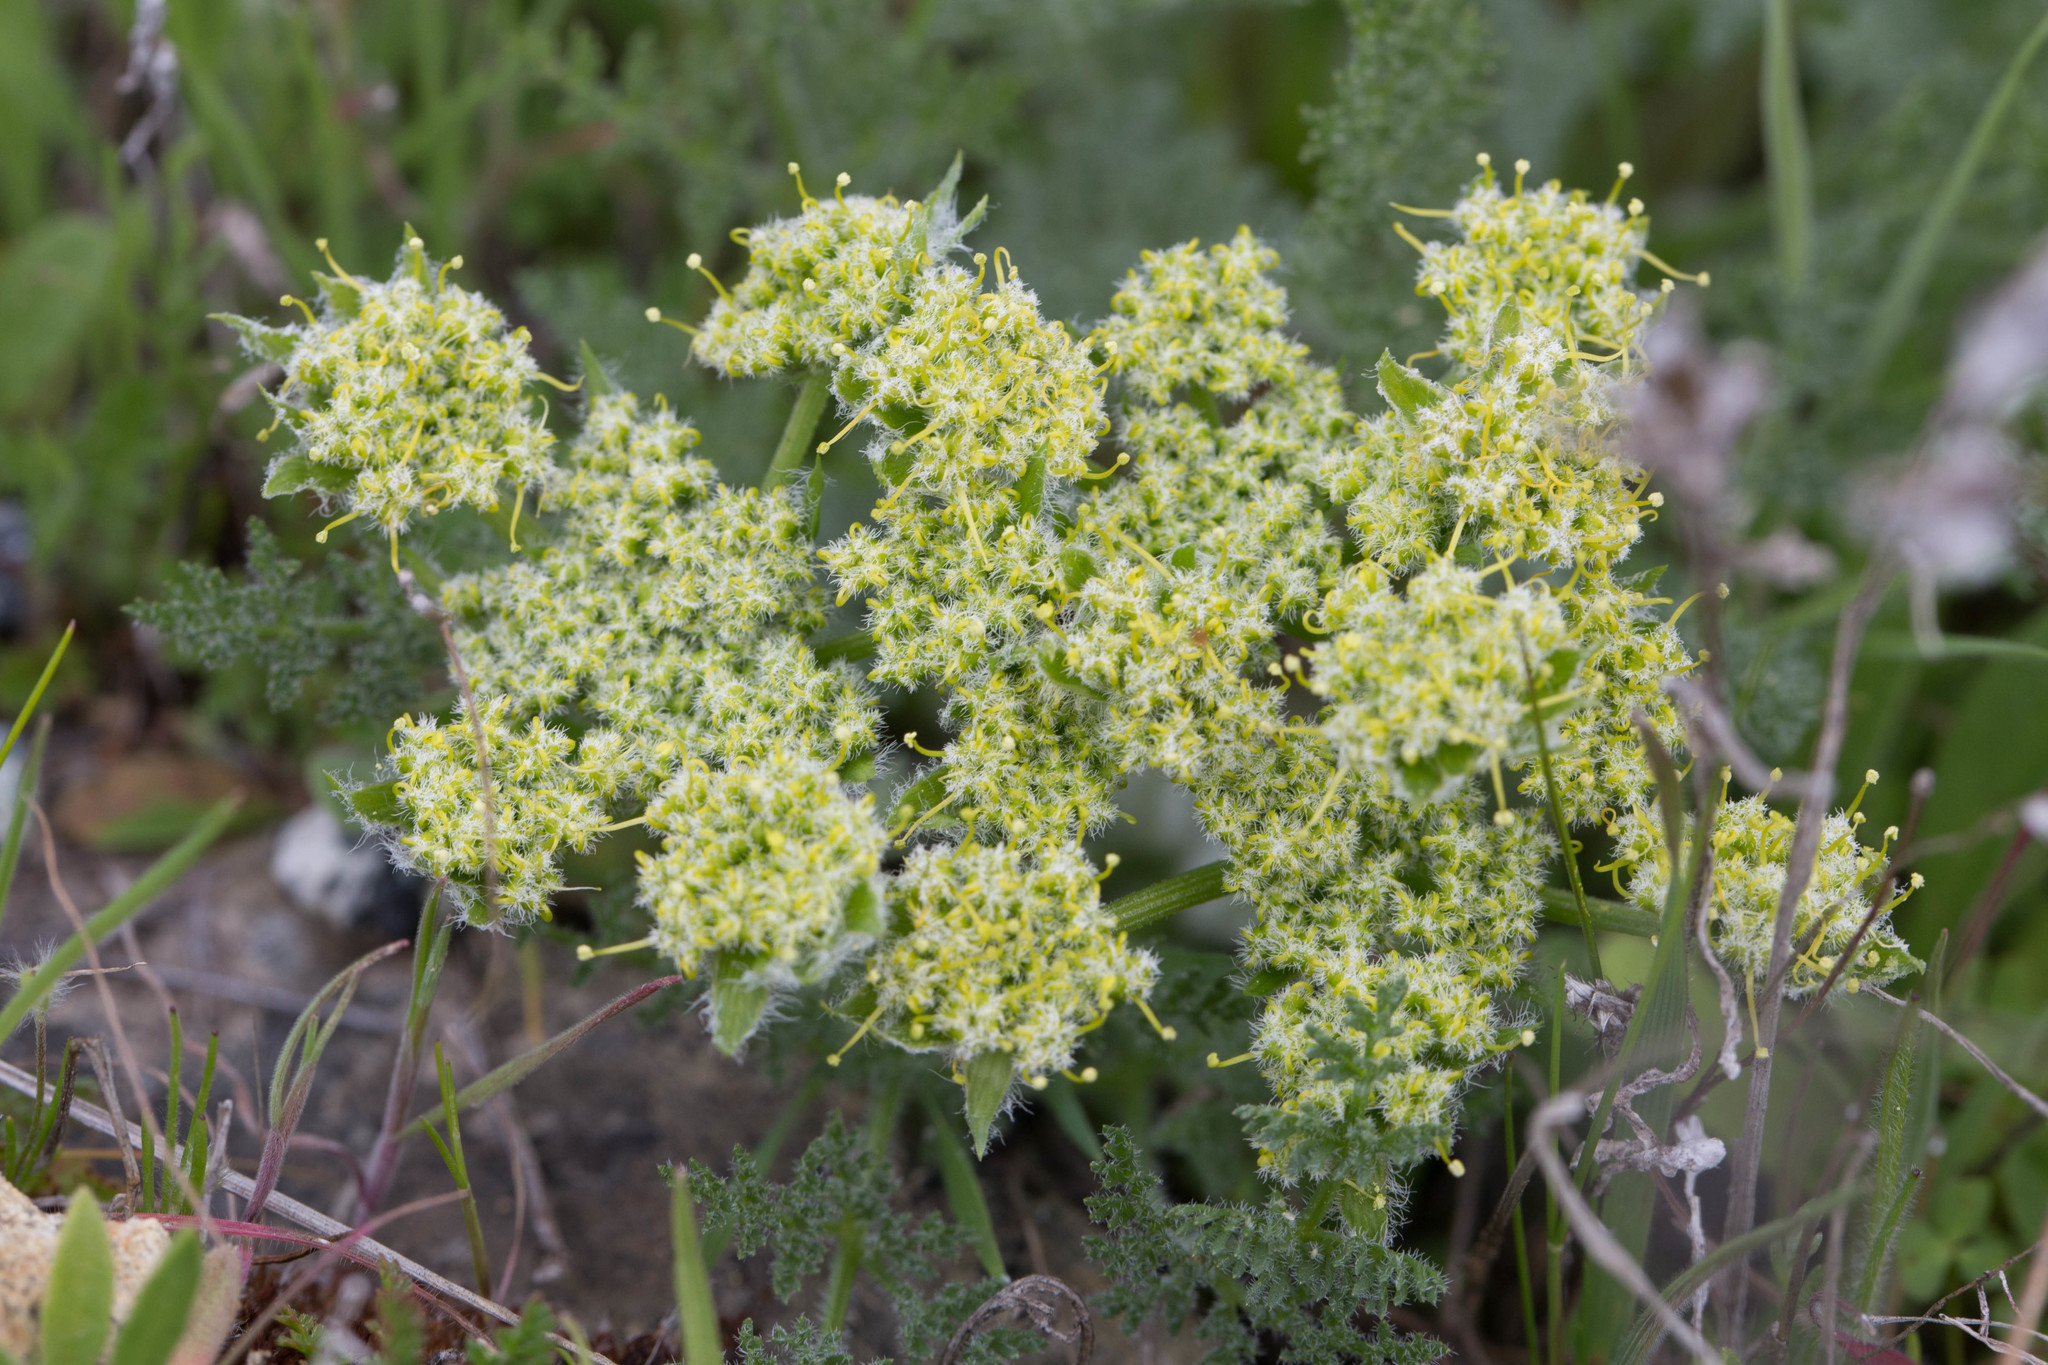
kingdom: Plantae
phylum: Tracheophyta
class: Magnoliopsida
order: Apiales
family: Apiaceae
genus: Lomatium
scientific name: Lomatium dasycarpum
